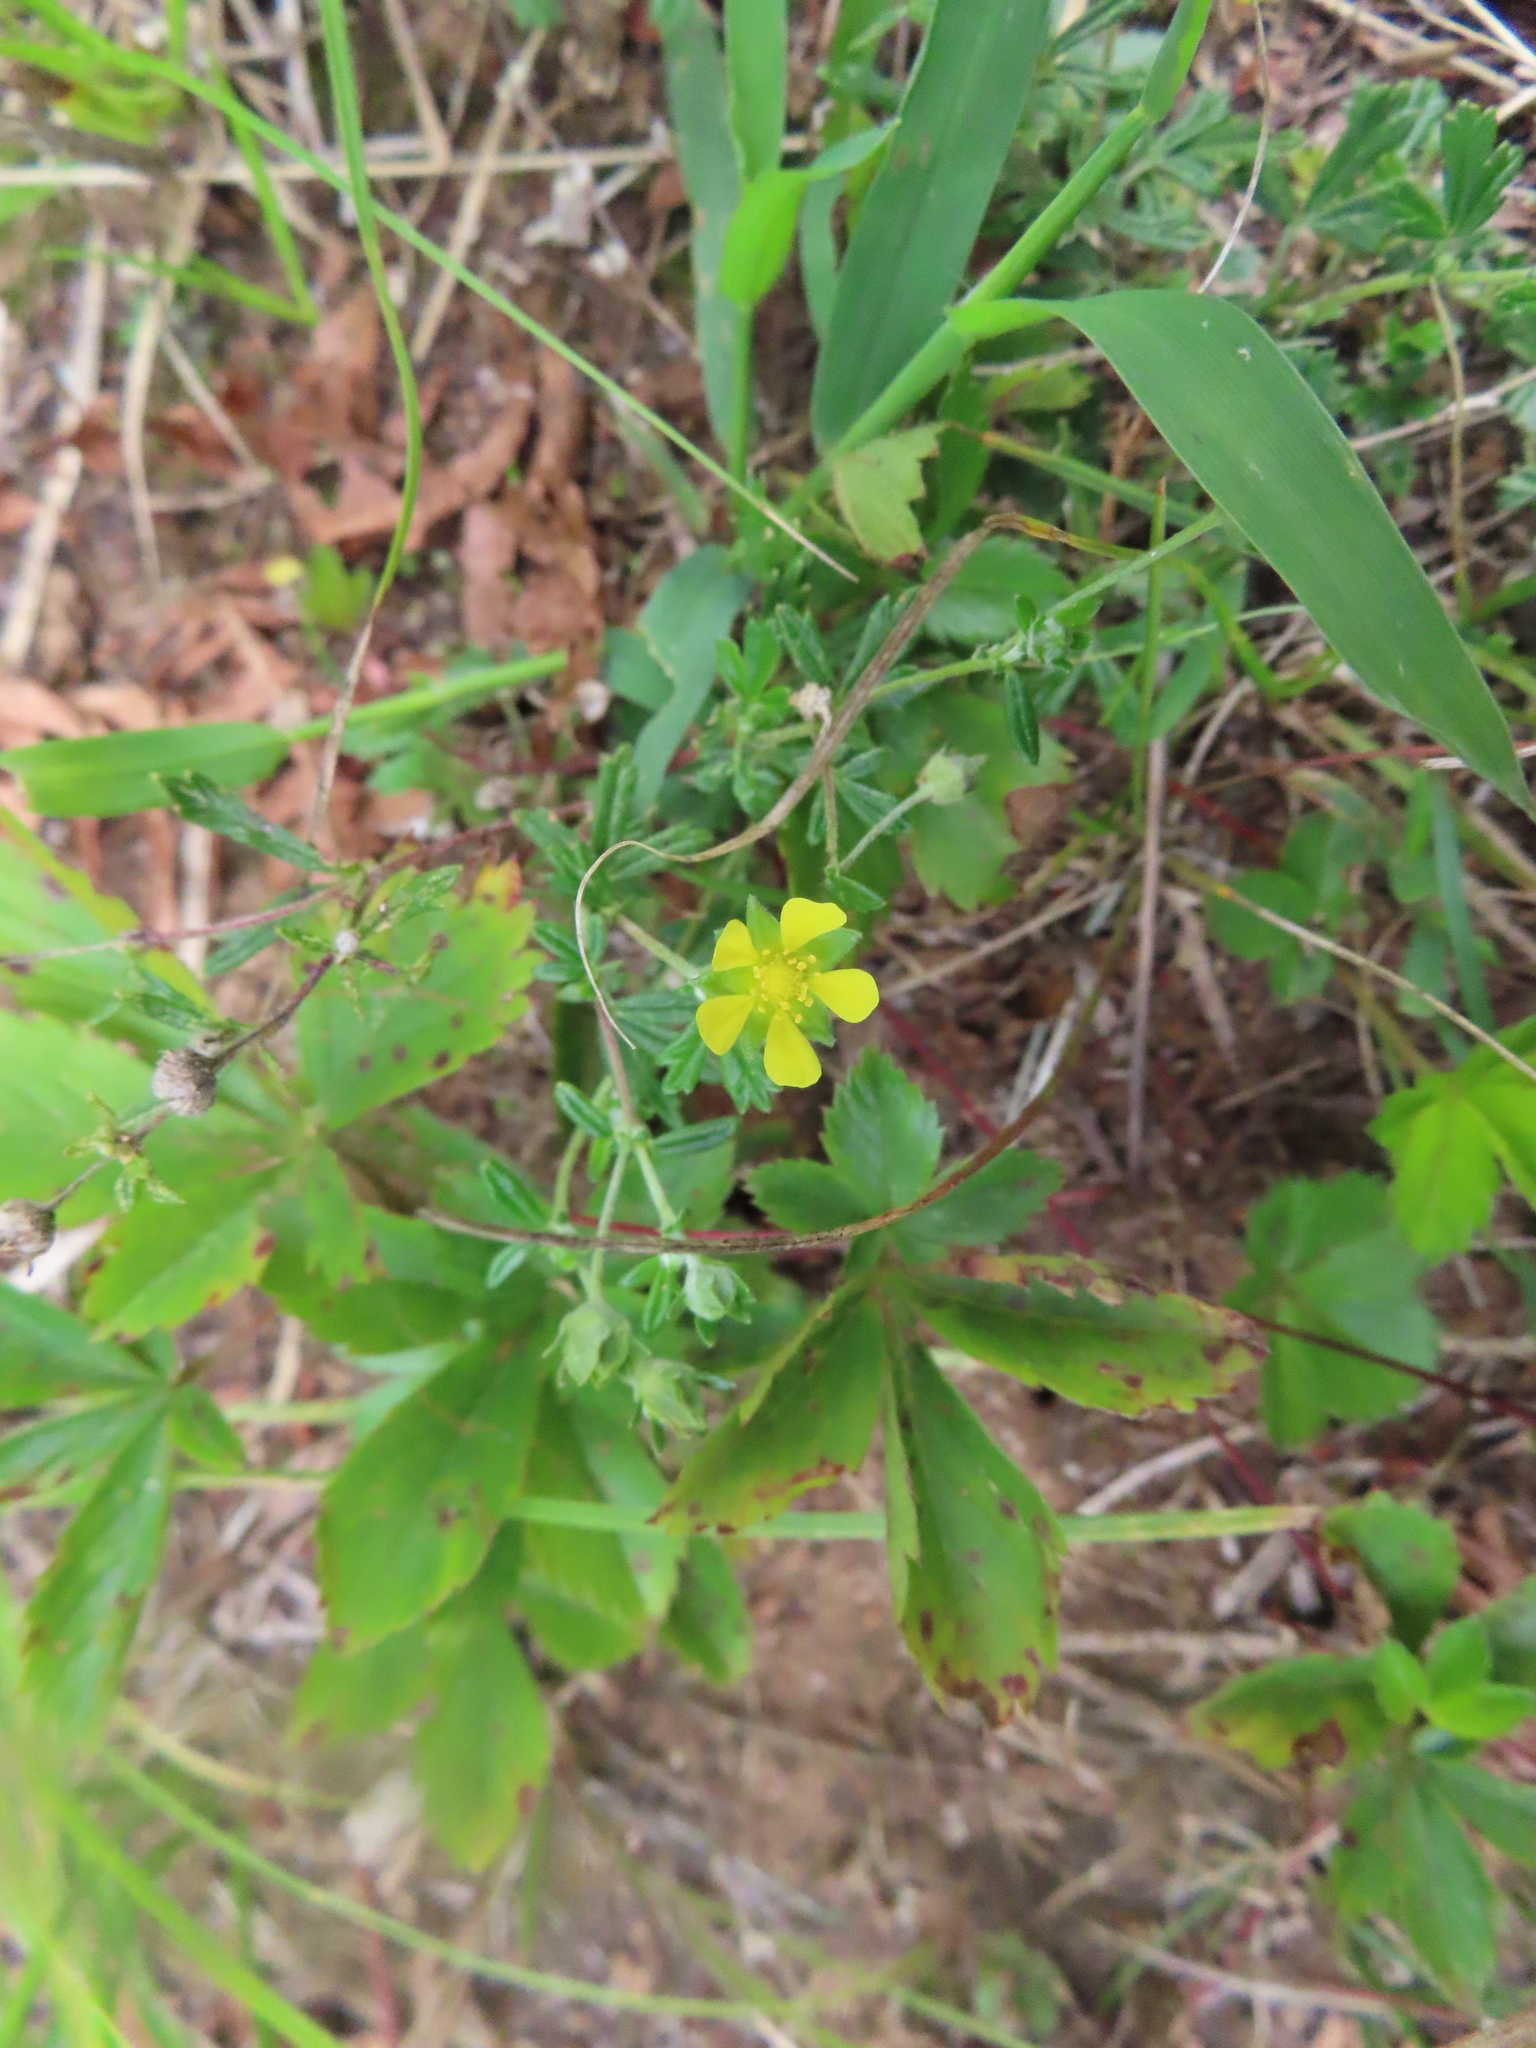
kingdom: Plantae
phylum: Tracheophyta
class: Magnoliopsida
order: Rosales
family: Rosaceae
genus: Potentilla
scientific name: Potentilla argentea
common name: Hoary cinquefoil
